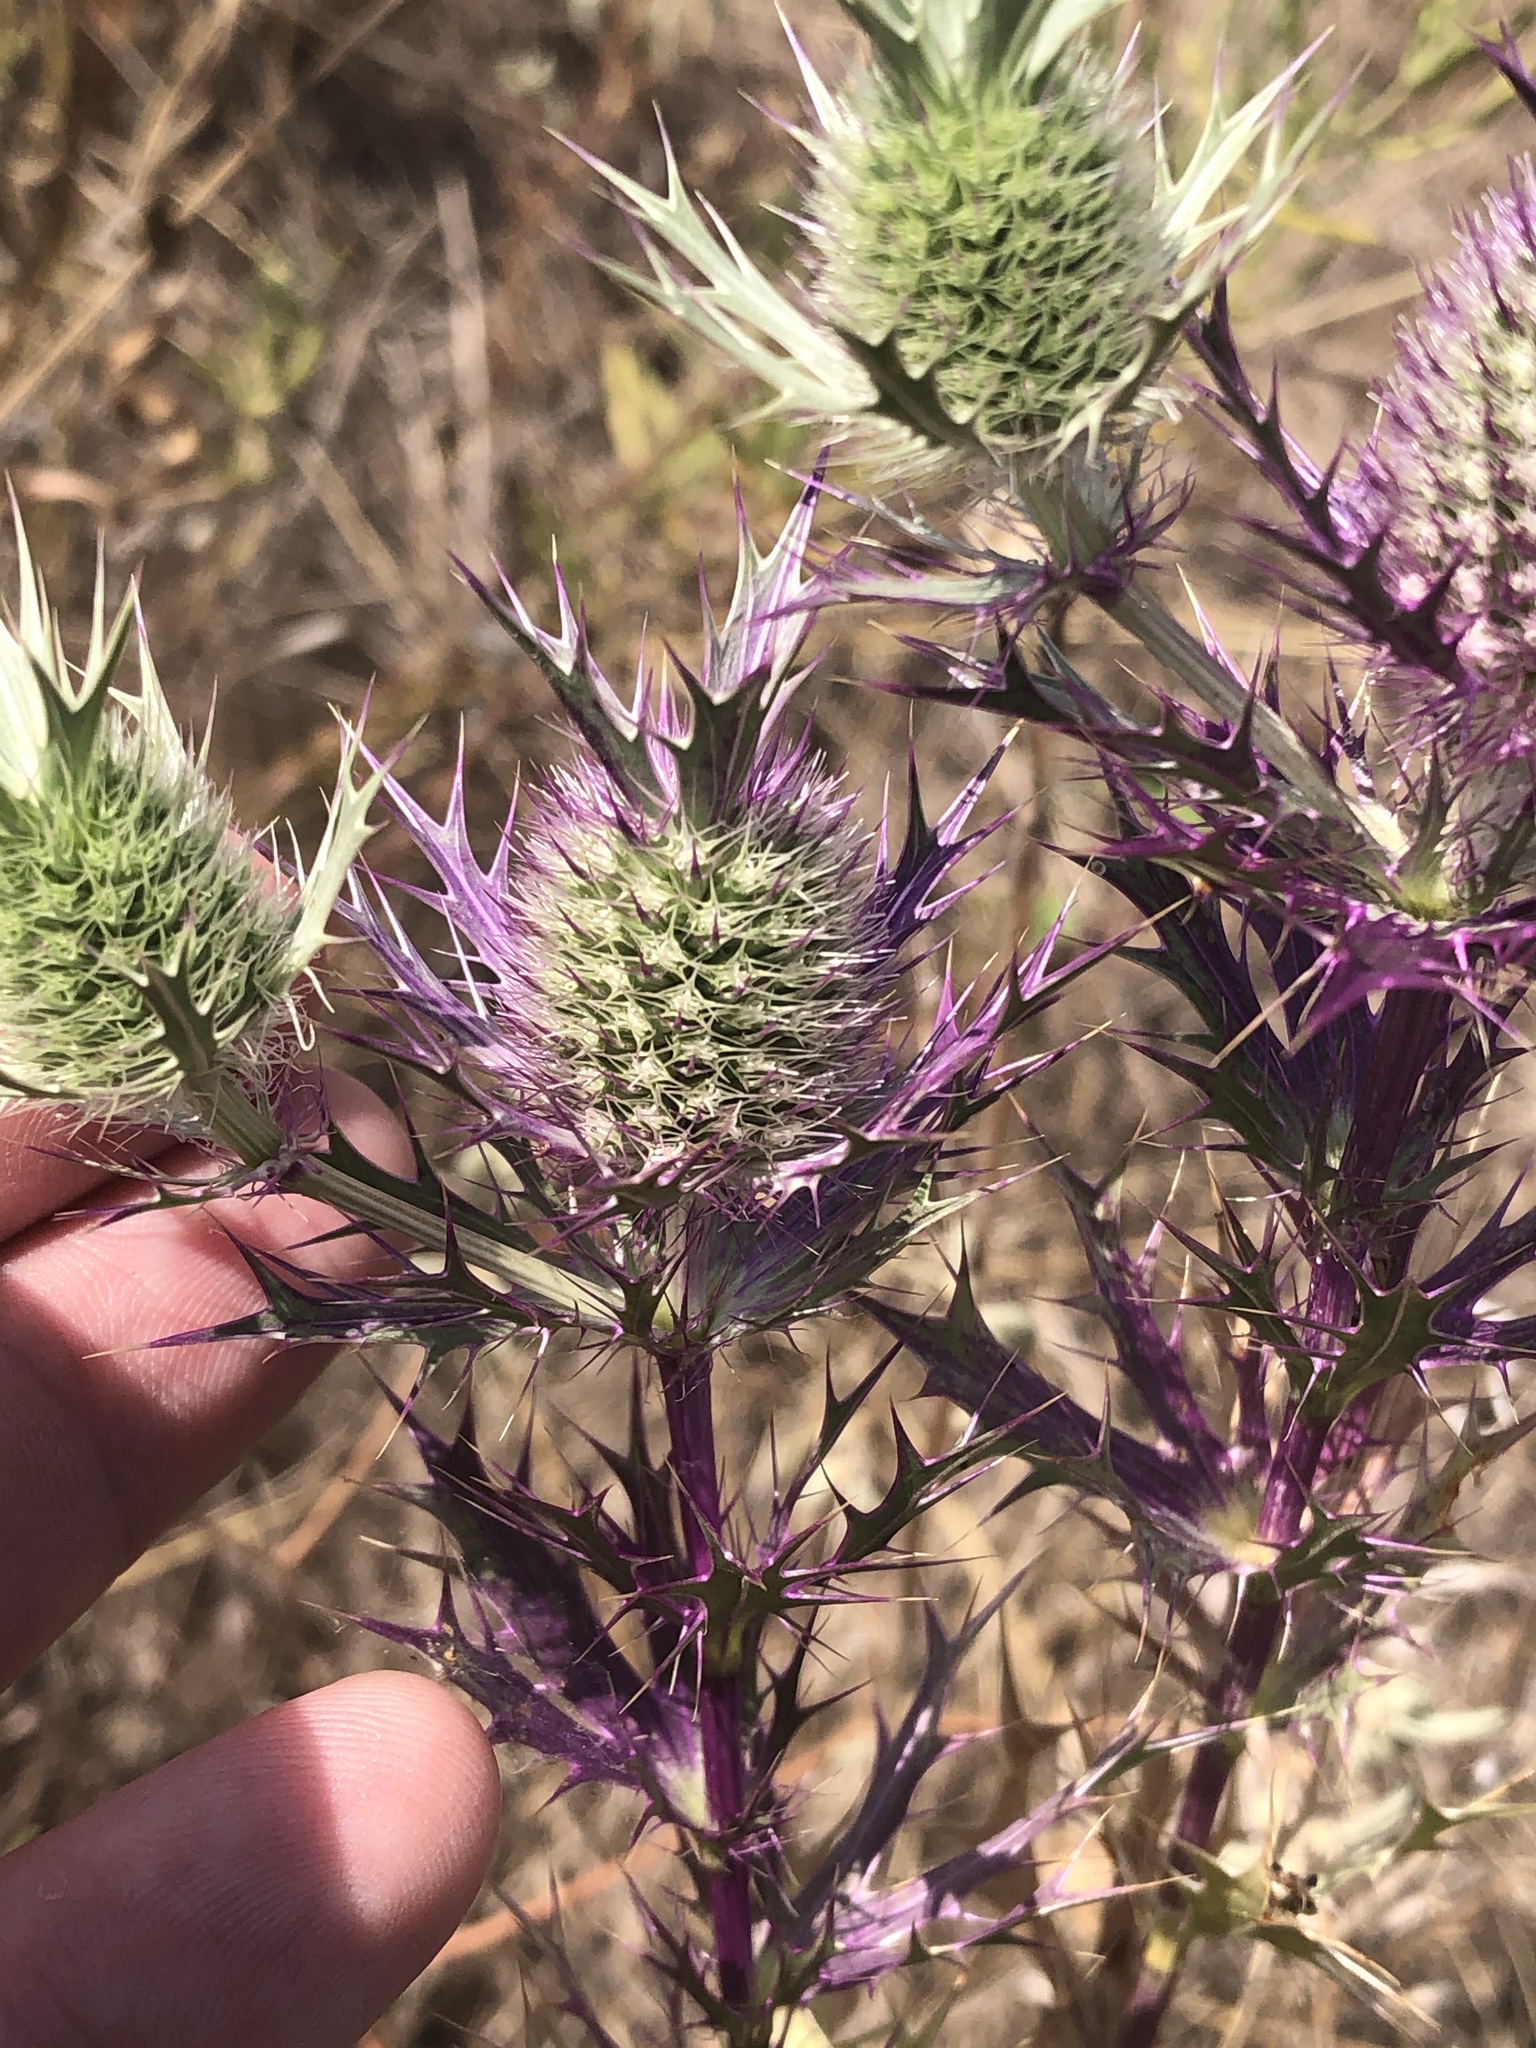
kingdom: Plantae
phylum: Tracheophyta
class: Magnoliopsida
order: Apiales
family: Apiaceae
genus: Eryngium
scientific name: Eryngium leavenworthii
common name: Leavenworth's eryngo
